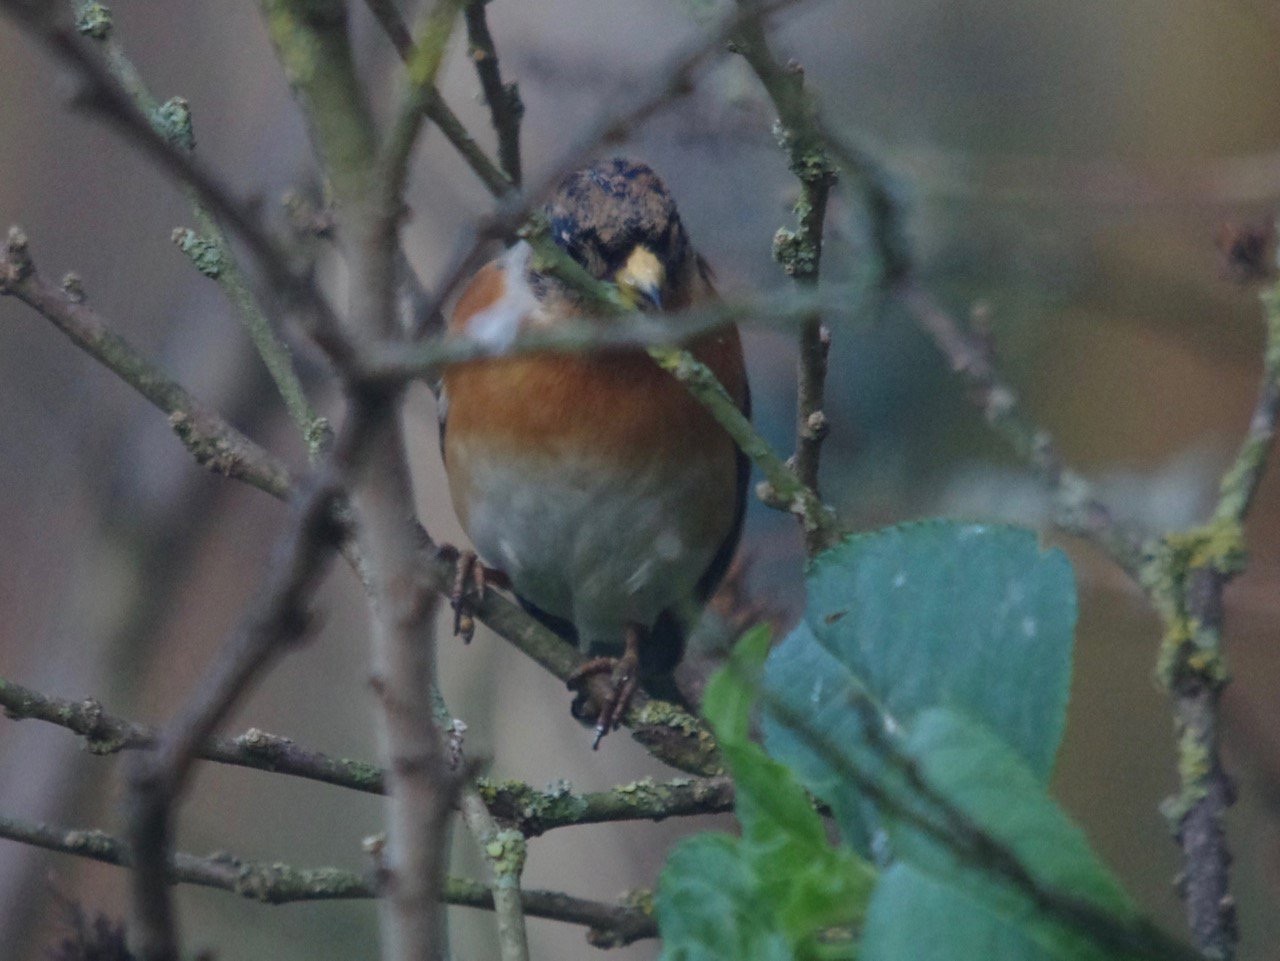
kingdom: Animalia
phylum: Chordata
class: Aves
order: Passeriformes
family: Fringillidae
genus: Fringilla
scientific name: Fringilla montifringilla
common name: Brambling
